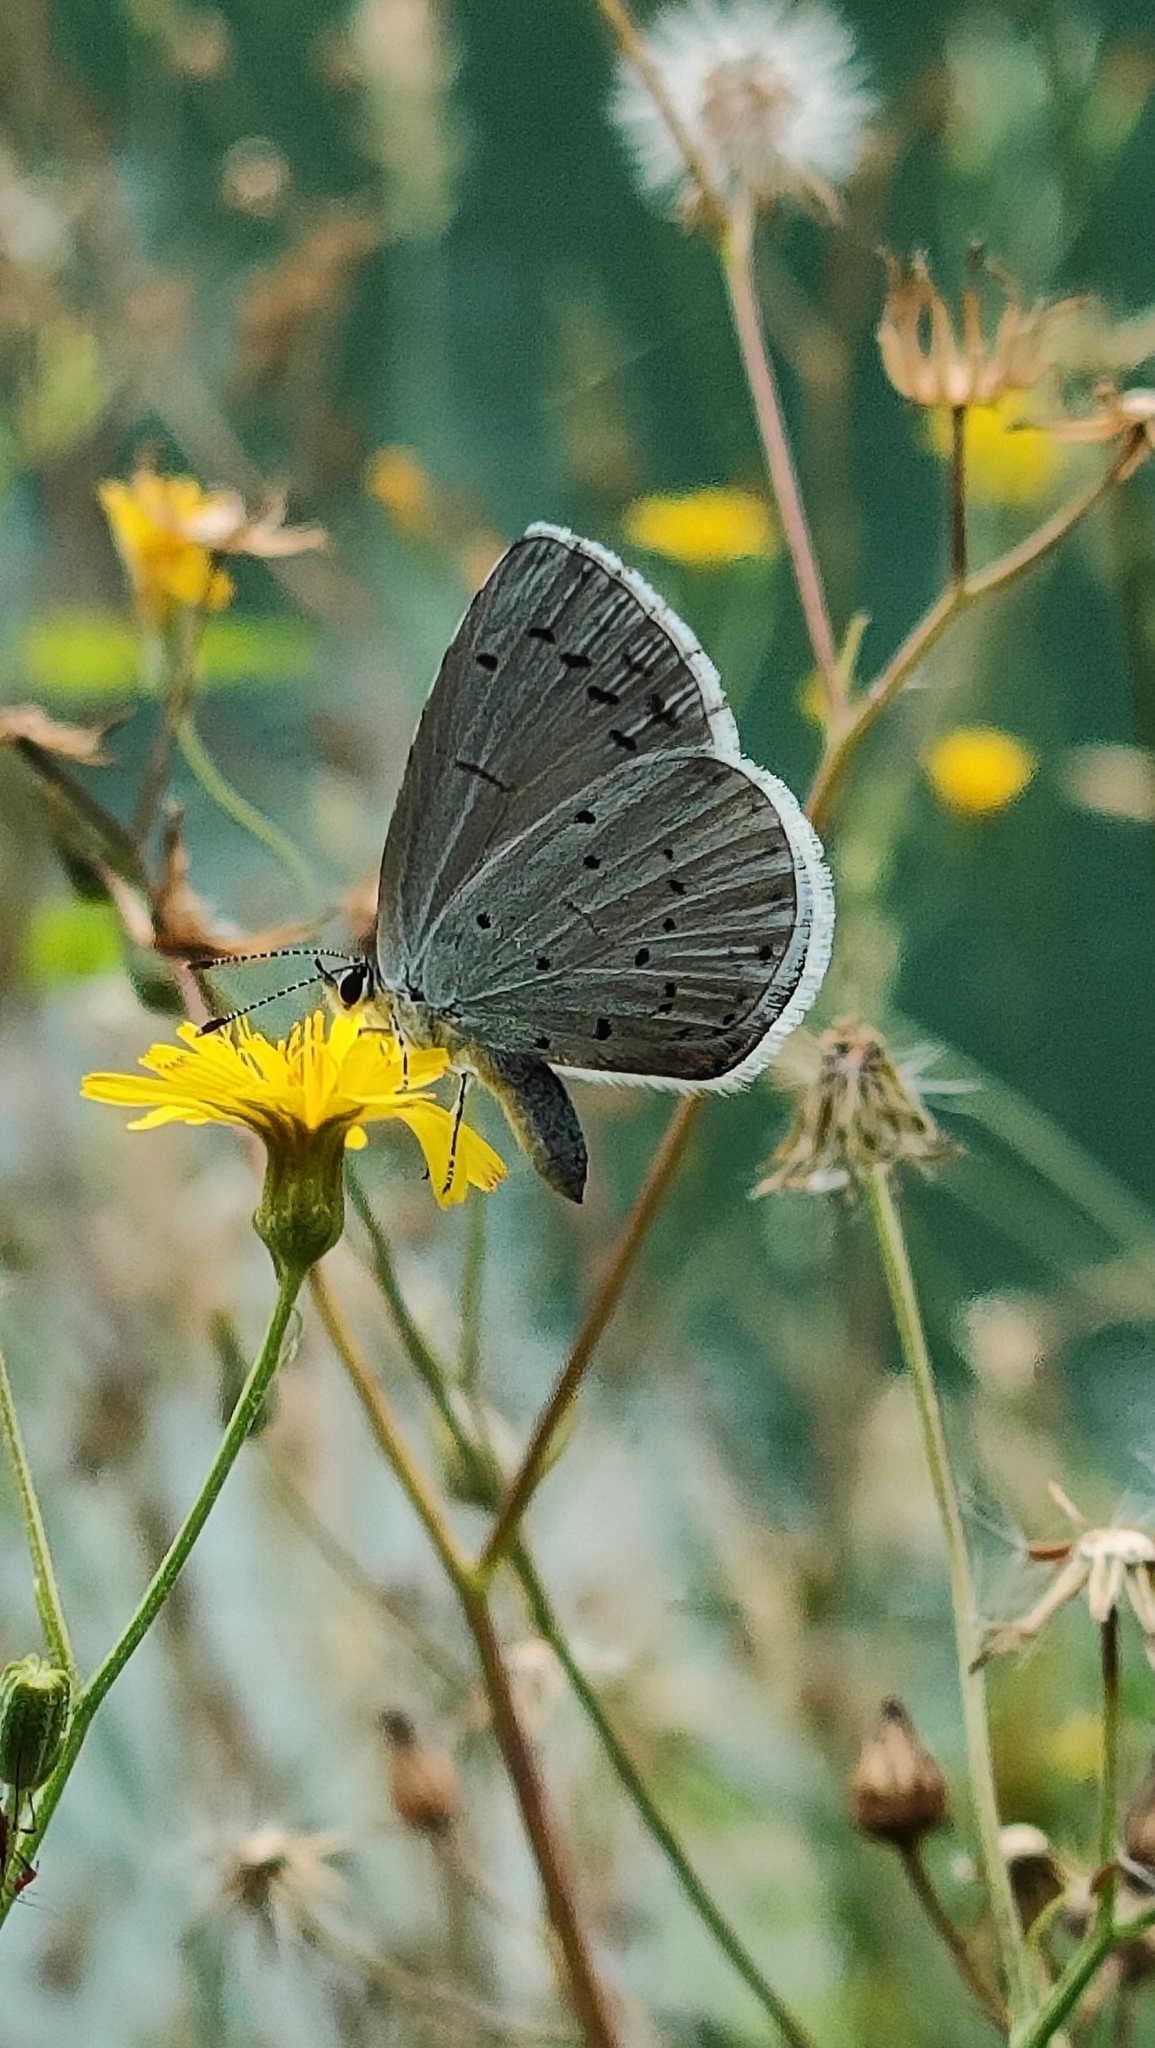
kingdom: Animalia
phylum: Arthropoda
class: Insecta
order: Lepidoptera
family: Lycaenidae
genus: Celastrina
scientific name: Celastrina argiolus
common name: Holly blue
